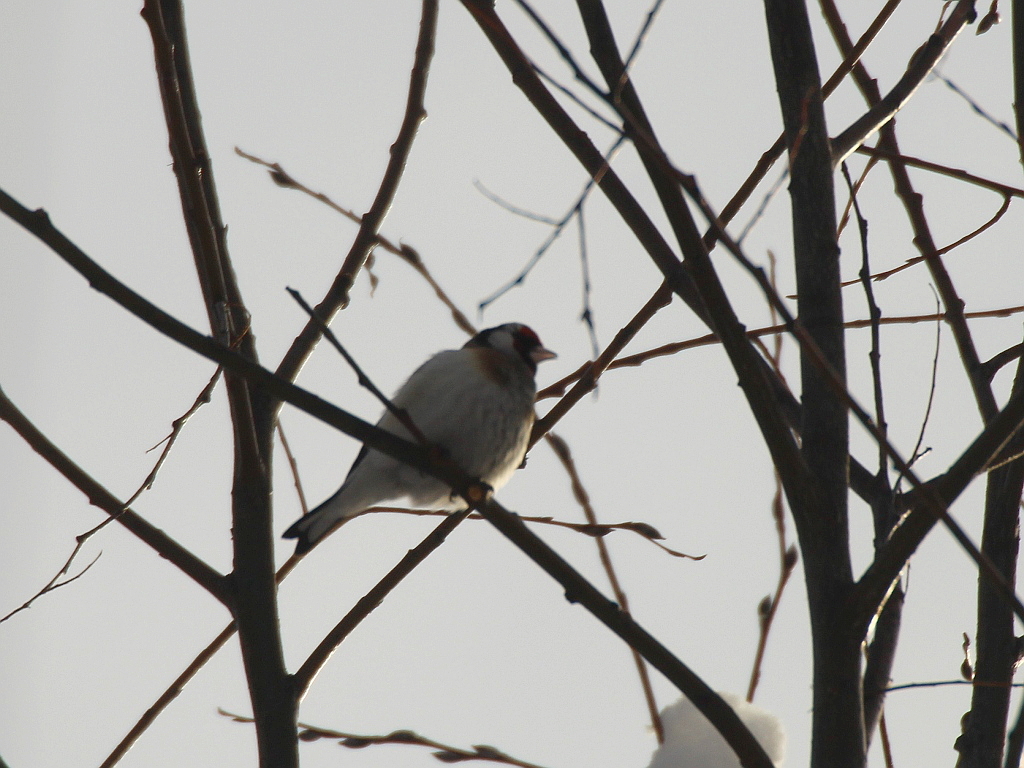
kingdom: Animalia
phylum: Chordata
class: Aves
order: Passeriformes
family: Fringillidae
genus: Carduelis
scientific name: Carduelis carduelis
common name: European goldfinch
